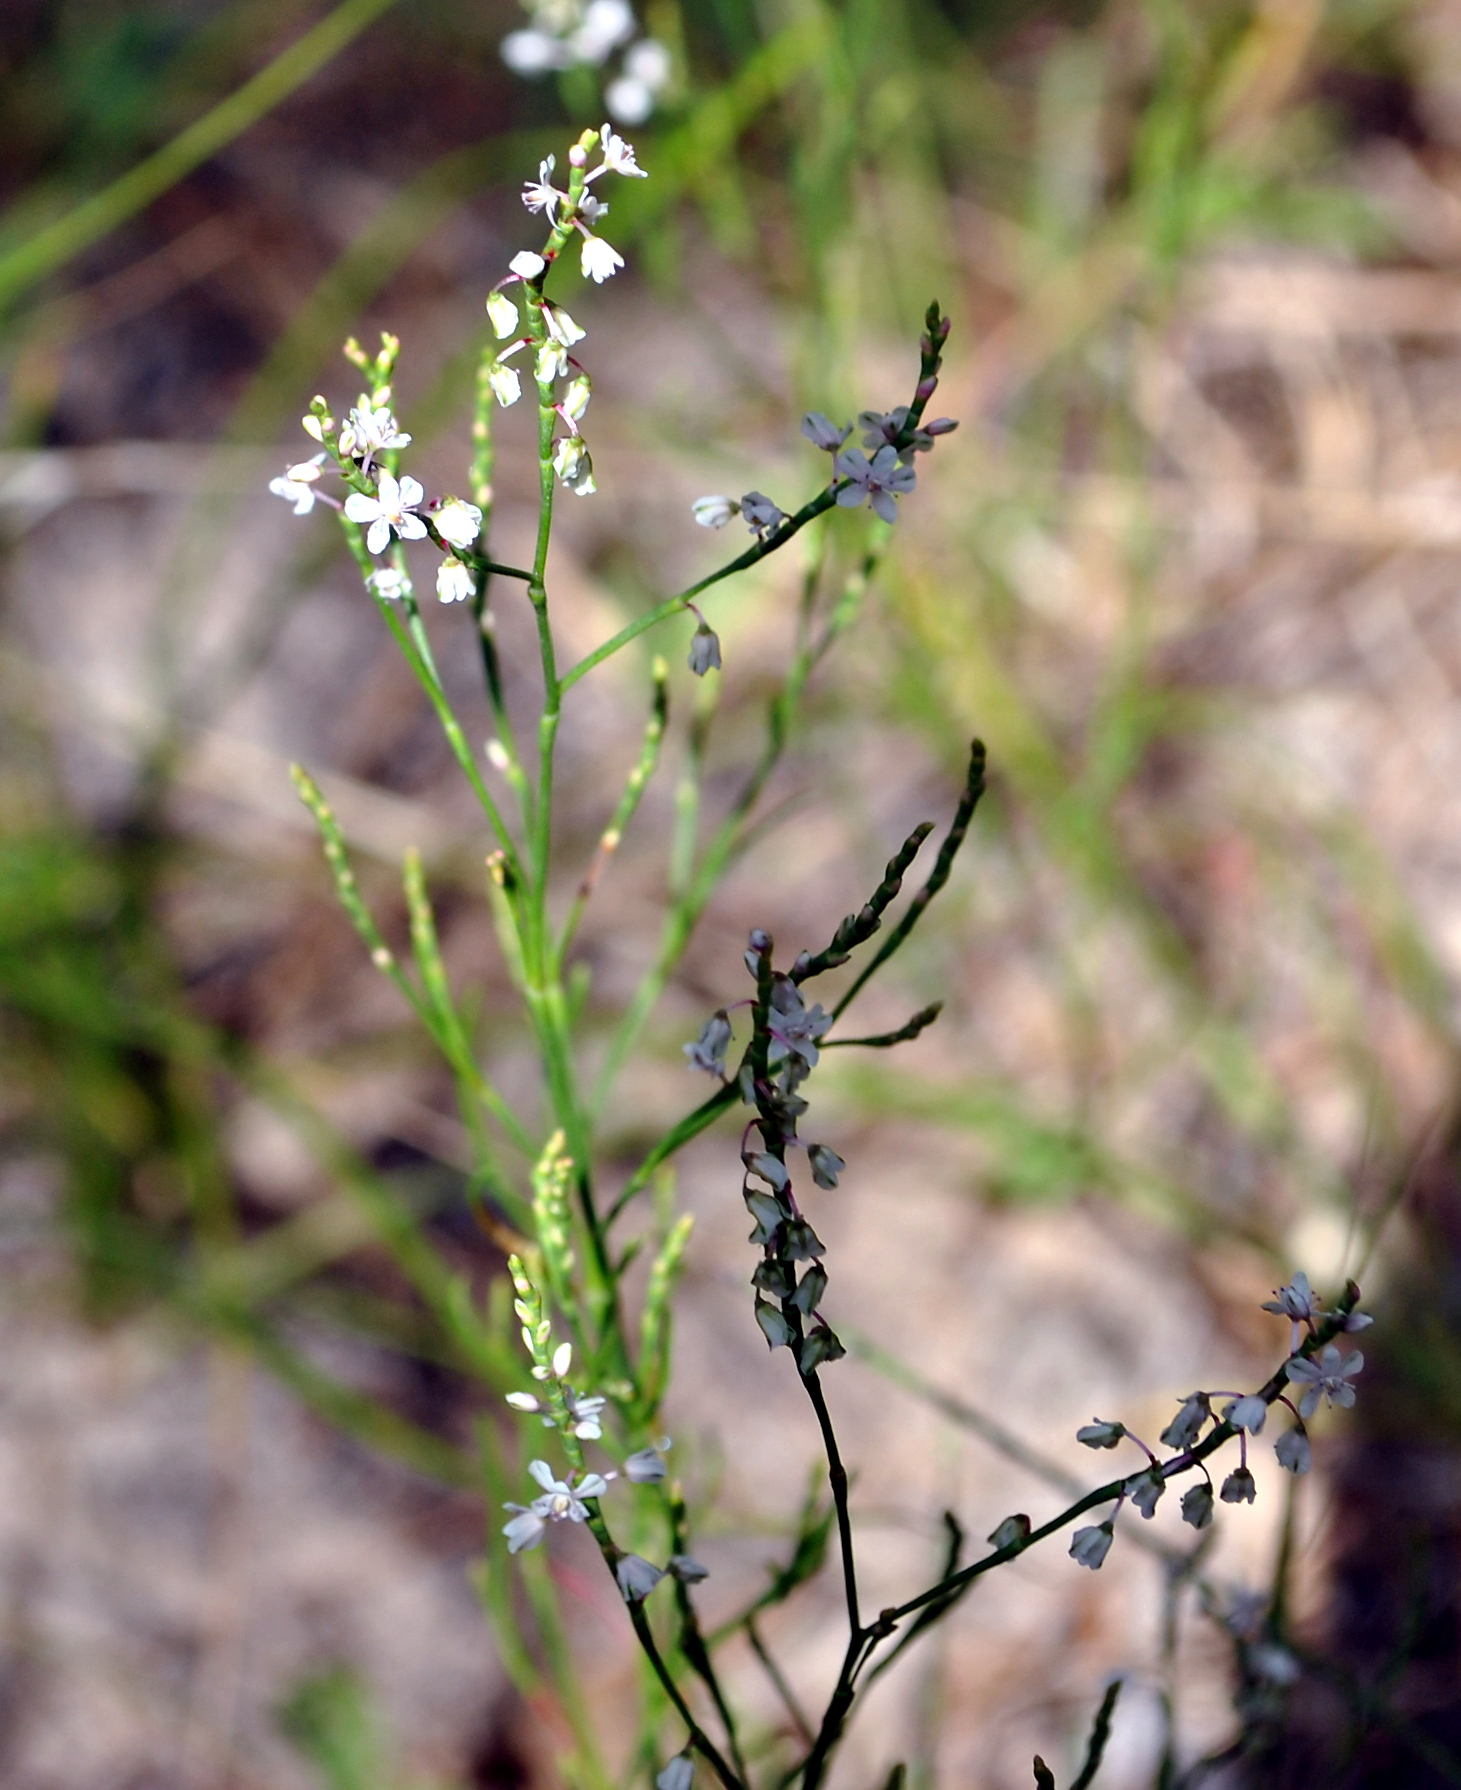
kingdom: Plantae
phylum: Tracheophyta
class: Magnoliopsida
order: Caryophyllales
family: Polygonaceae
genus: Polygonella
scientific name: Polygonella articulata
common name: Coastal jointweed
